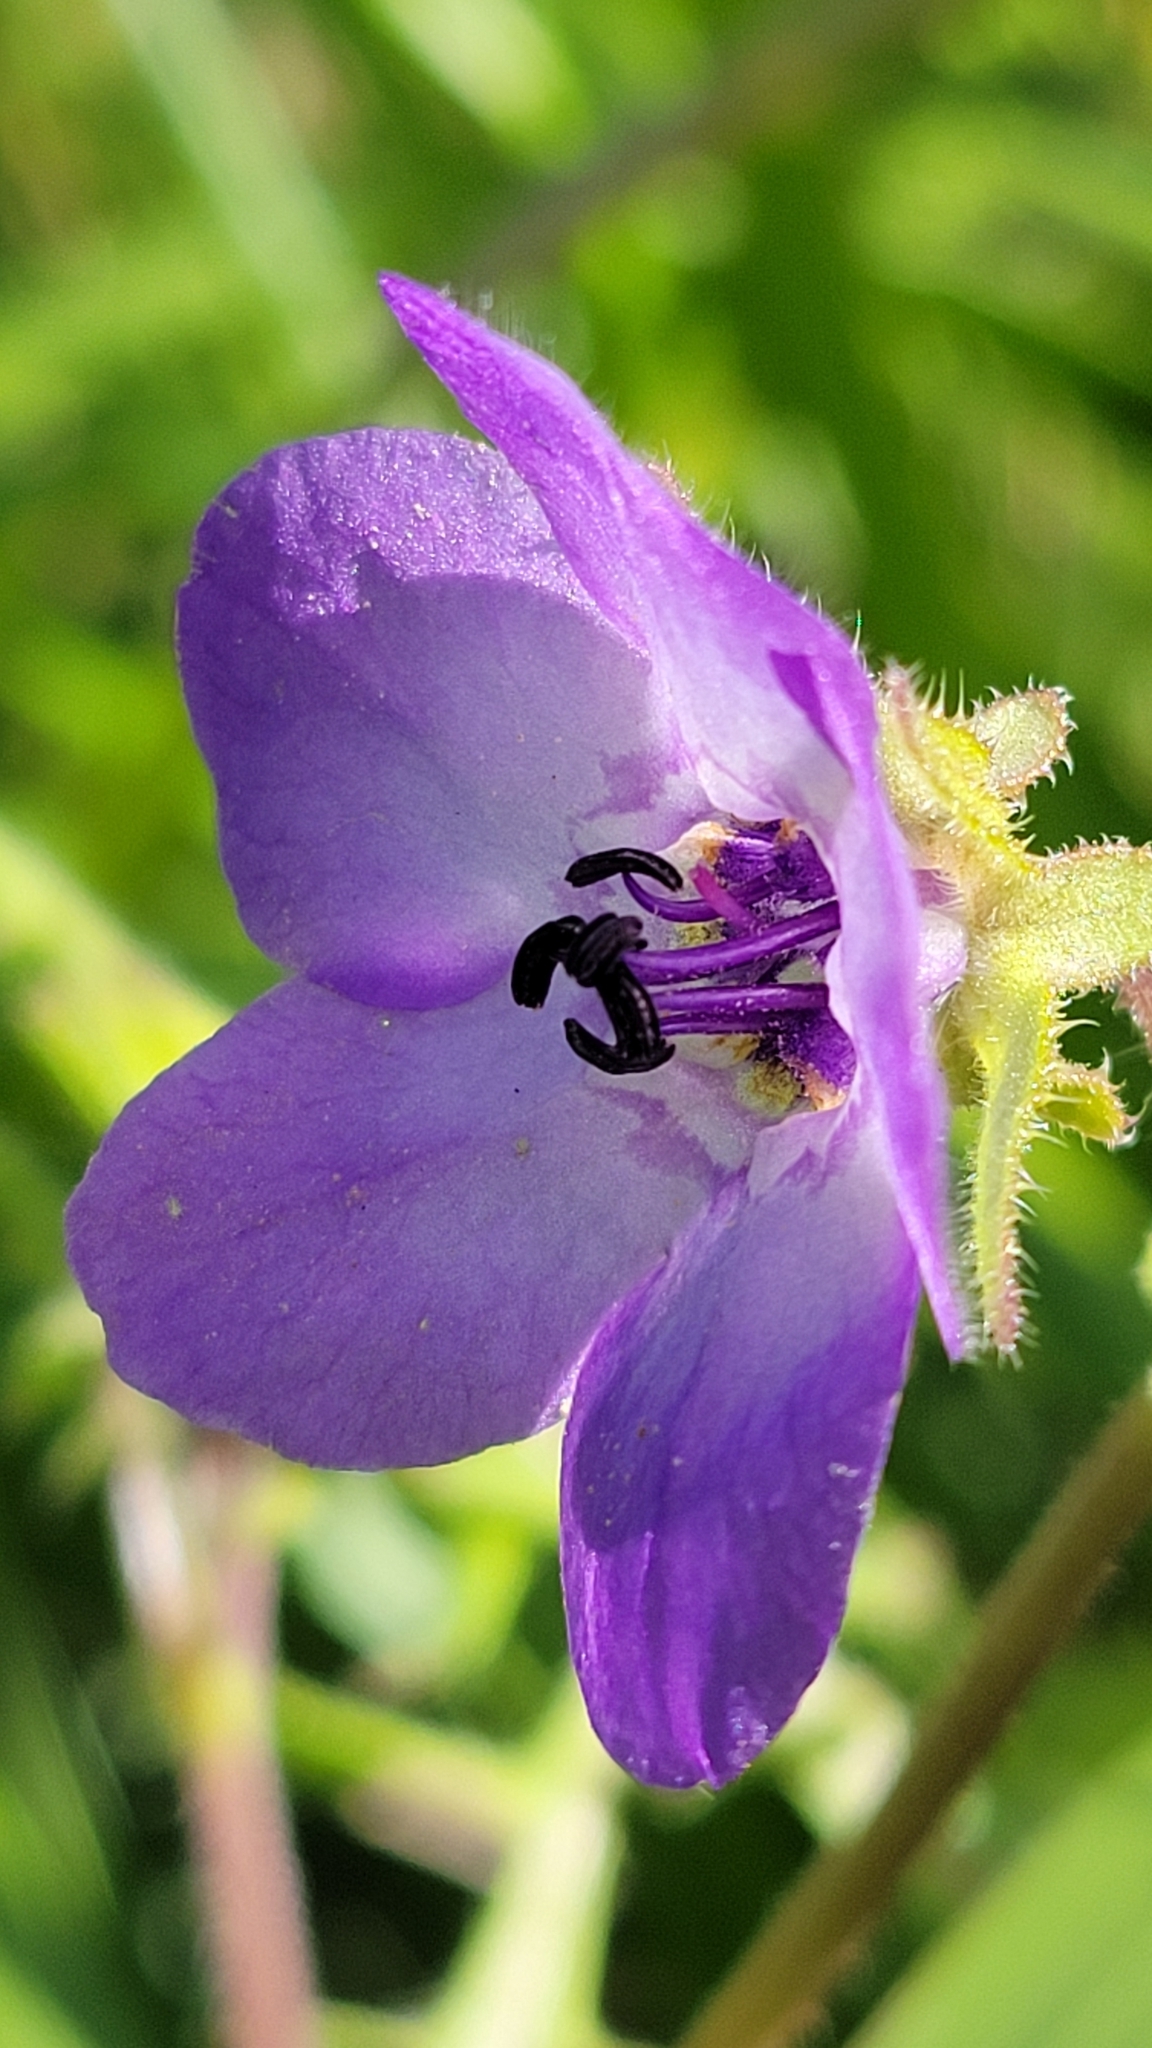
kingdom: Plantae
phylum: Tracheophyta
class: Magnoliopsida
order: Boraginales
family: Hydrophyllaceae
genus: Pholistoma
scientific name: Pholistoma auritum
